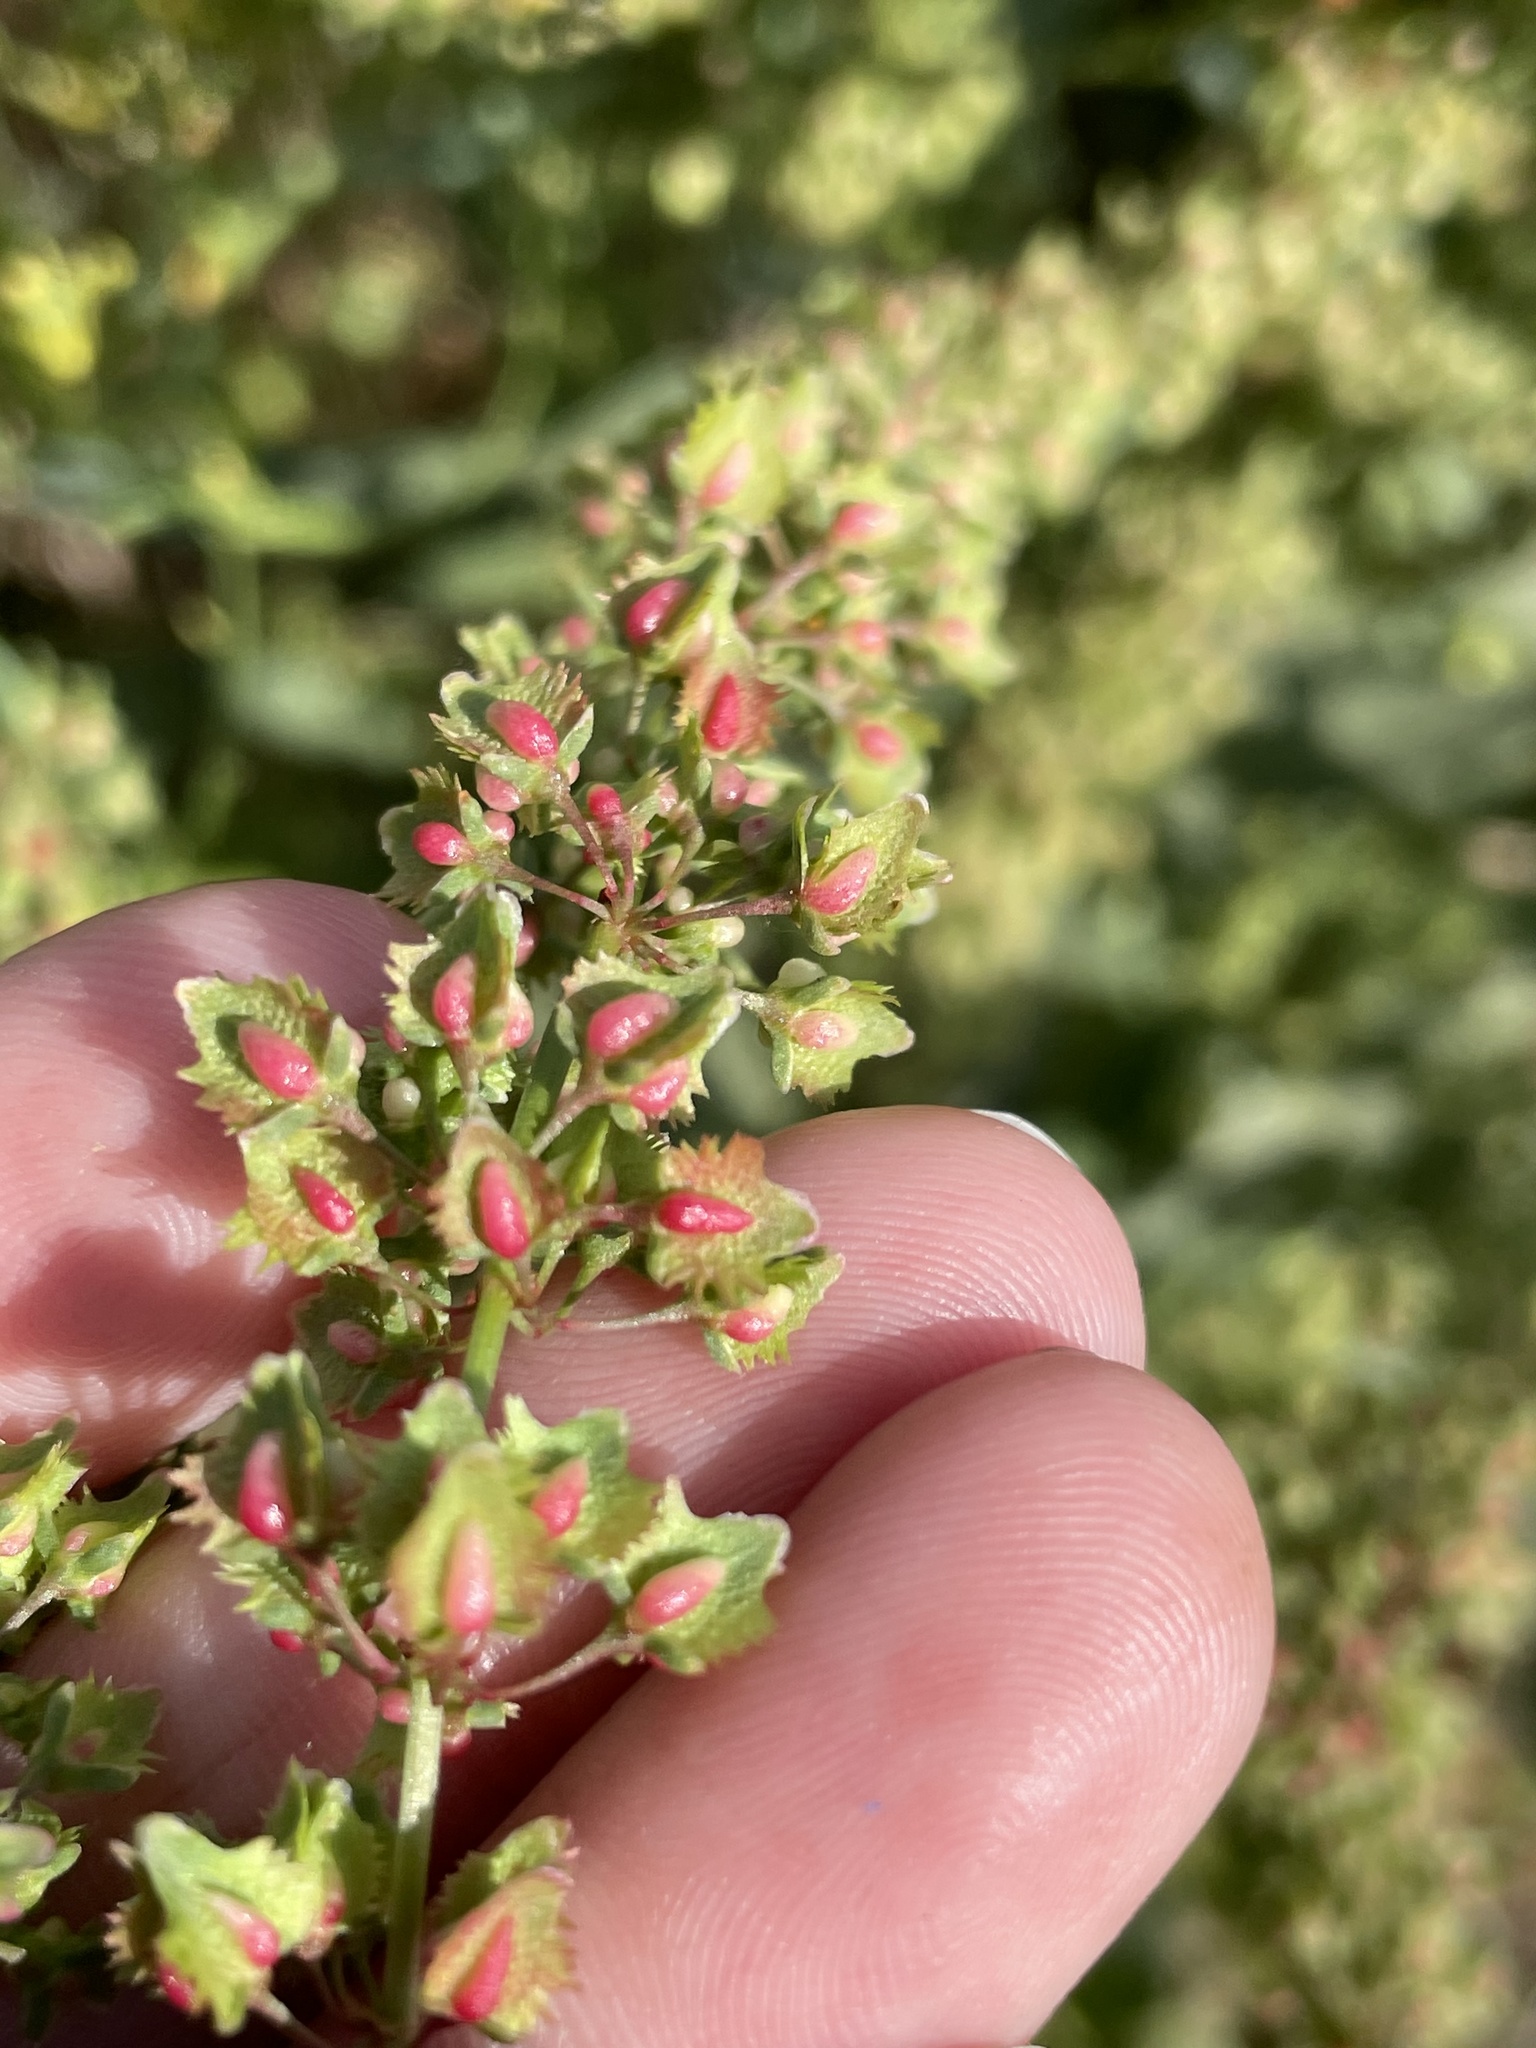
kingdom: Plantae
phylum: Tracheophyta
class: Magnoliopsida
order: Caryophyllales
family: Polygonaceae
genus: Rumex
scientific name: Rumex pulcher
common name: Fiddle dock
